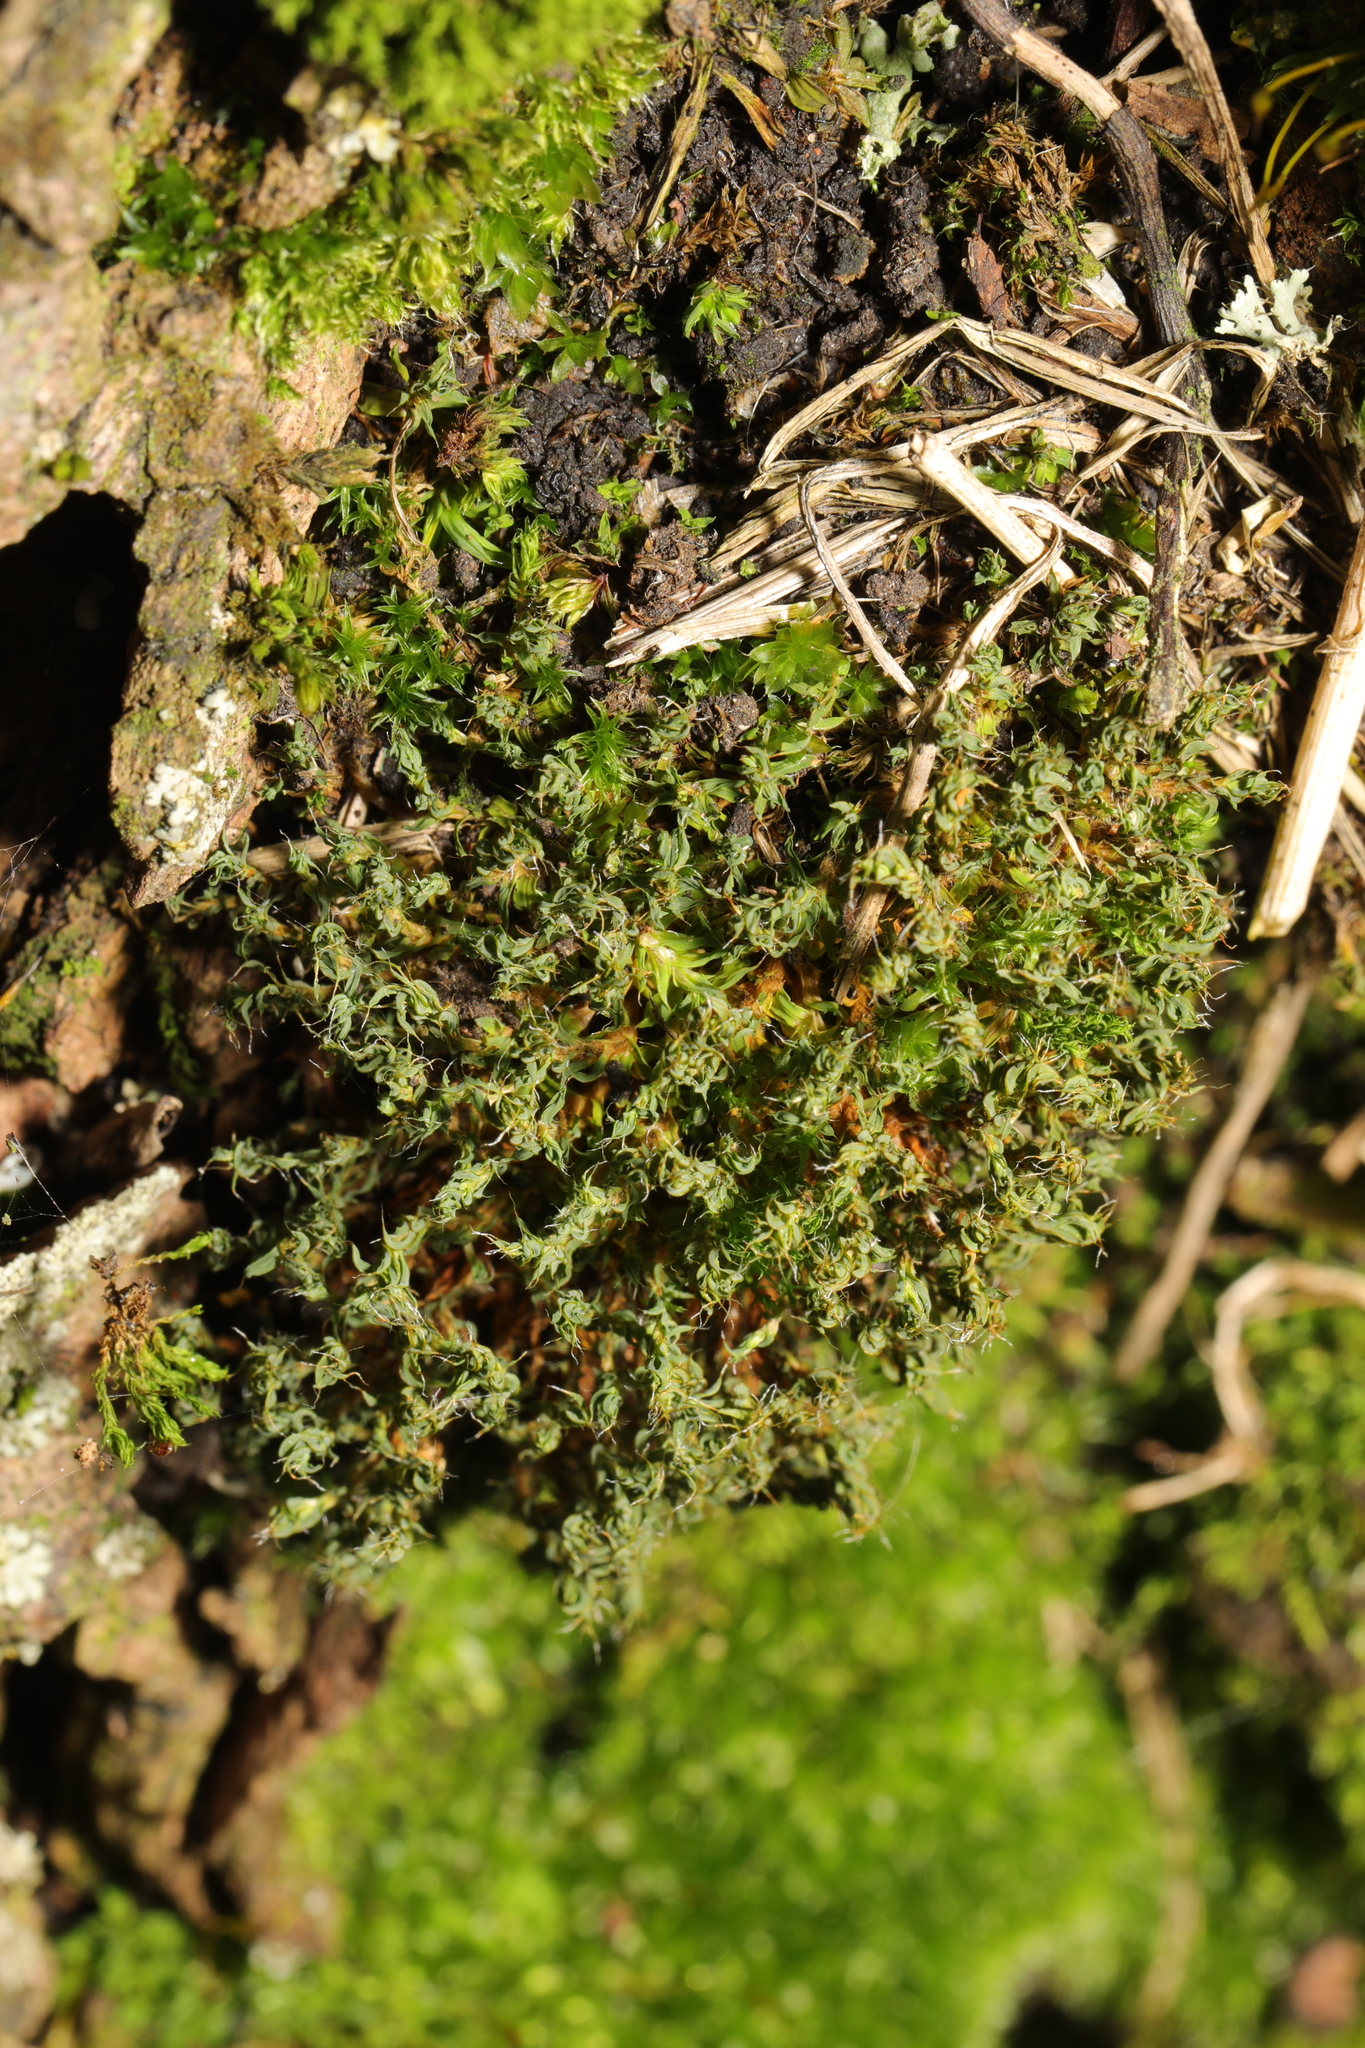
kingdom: Plantae
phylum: Bryophyta
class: Bryopsida
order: Pottiales
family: Pottiaceae
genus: Tortula
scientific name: Tortula muralis
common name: Wall screw-moss
